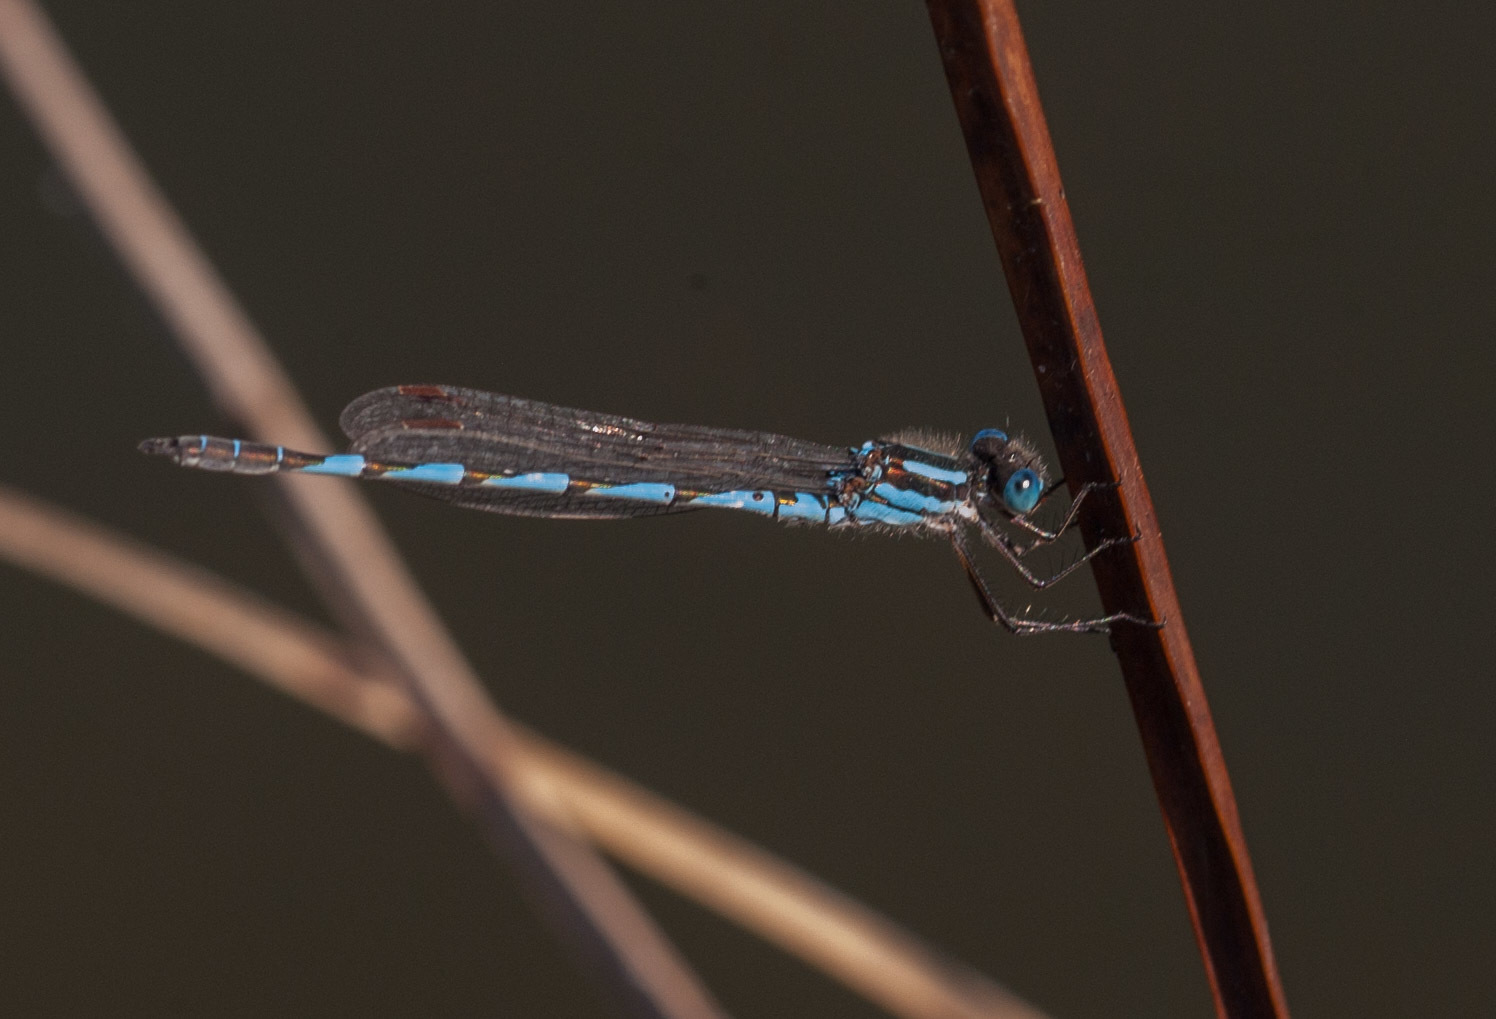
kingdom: Animalia
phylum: Arthropoda
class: Insecta
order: Odonata
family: Lestidae
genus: Austrolestes
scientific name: Austrolestes annulosus
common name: Blue ringtail
